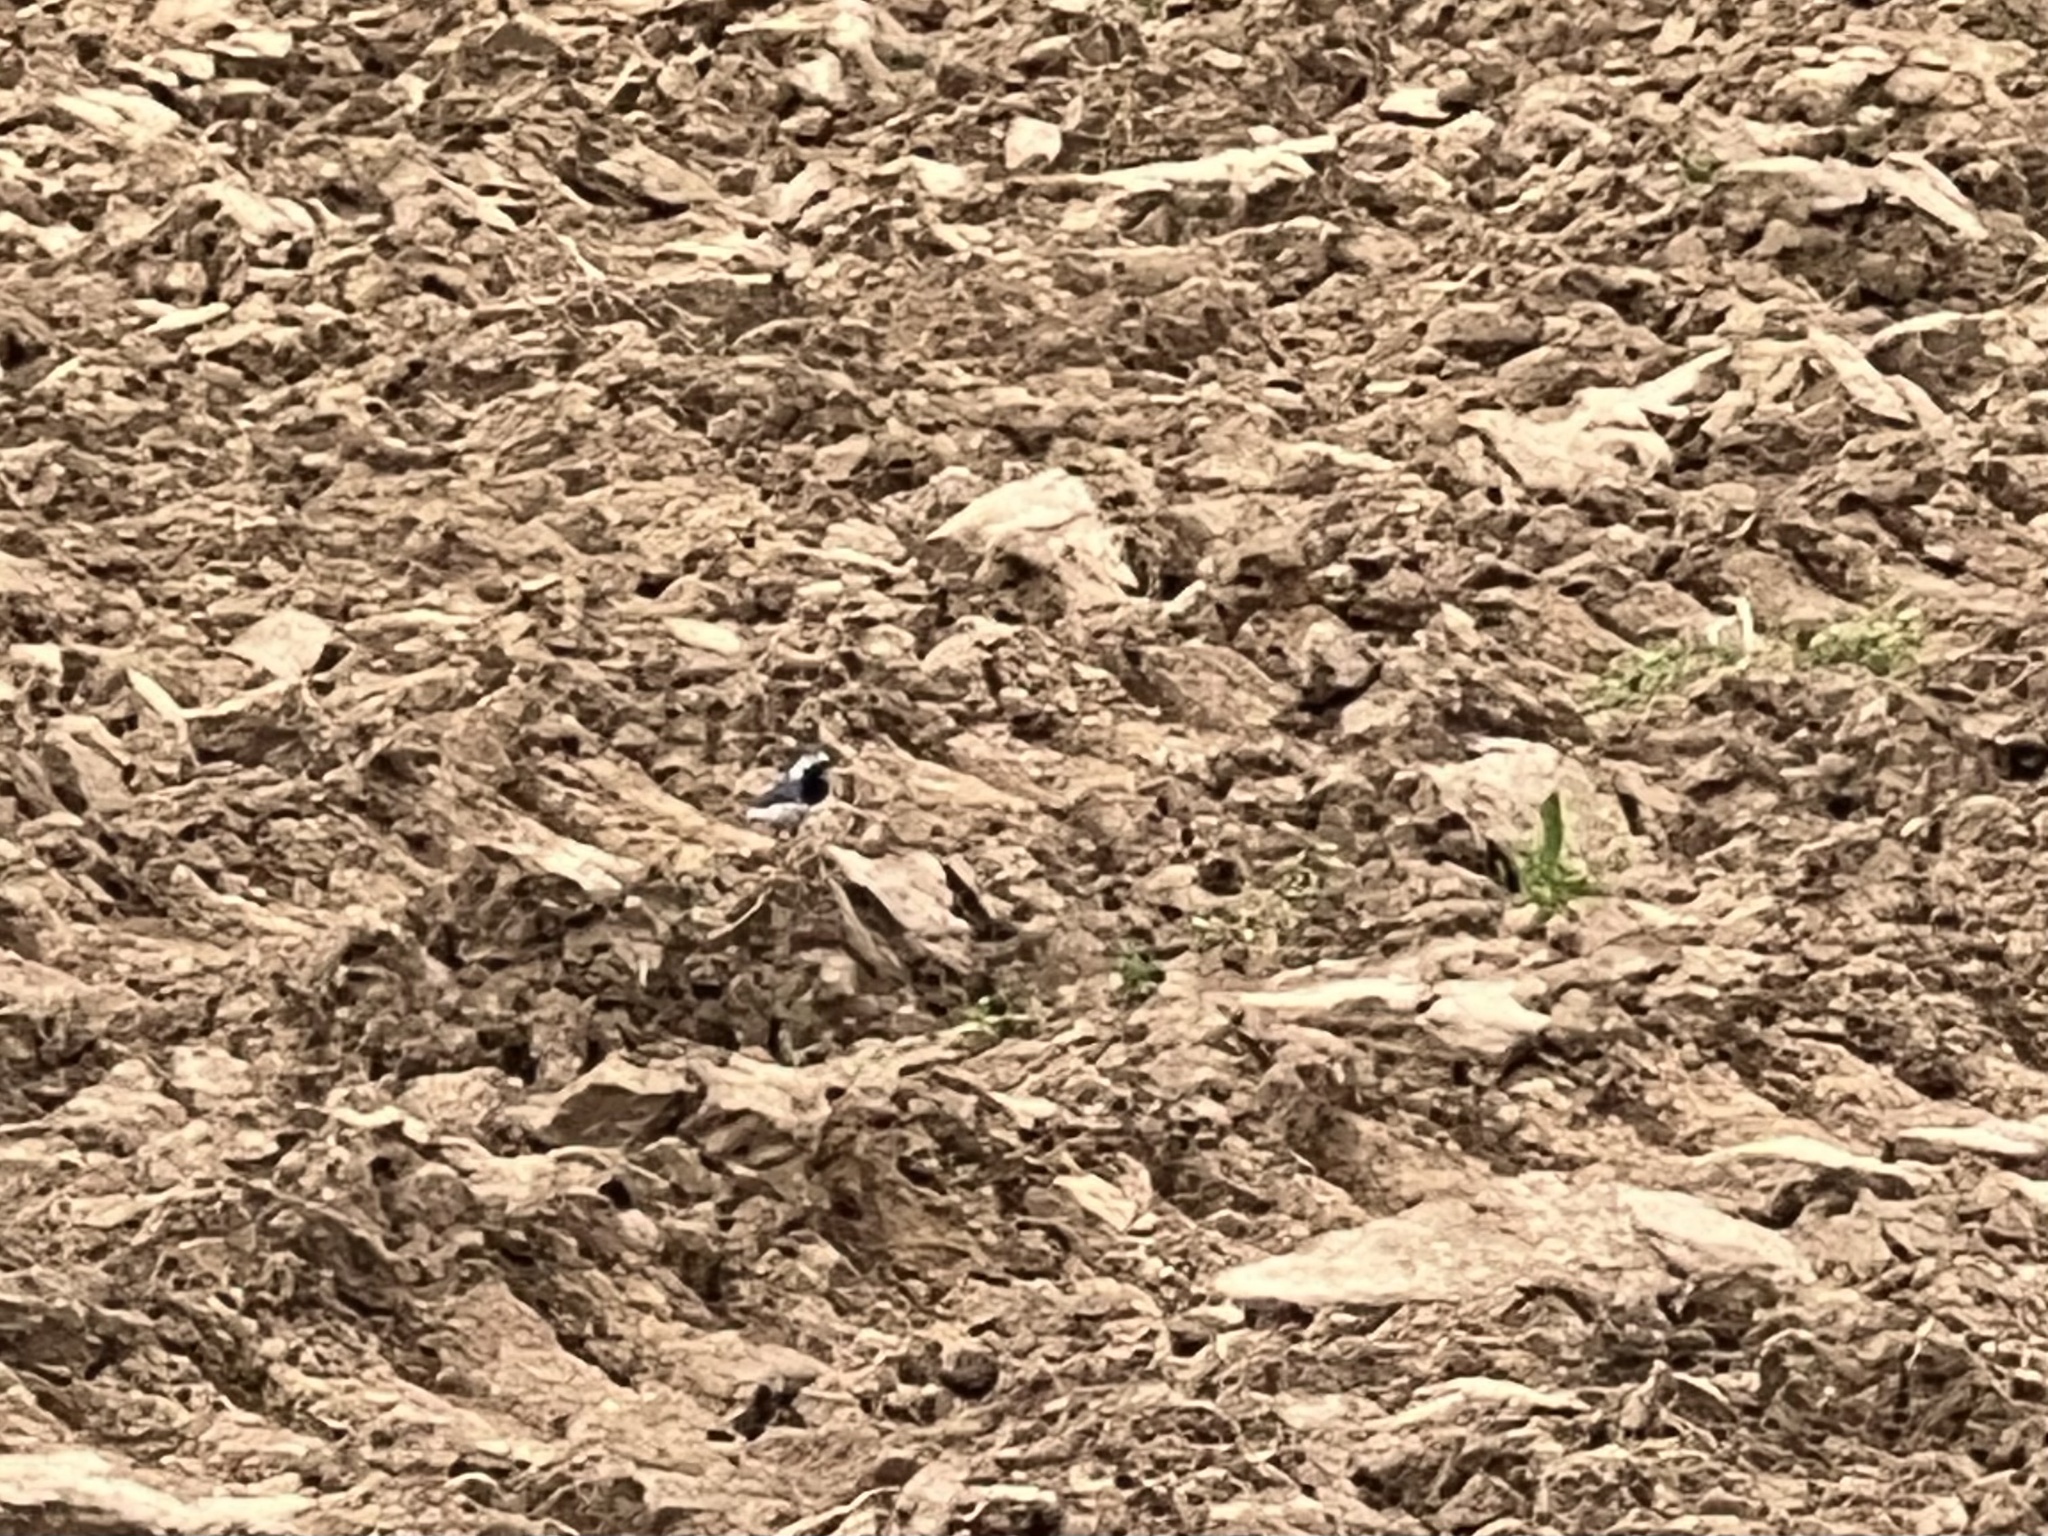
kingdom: Animalia
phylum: Chordata
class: Aves
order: Passeriformes
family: Motacillidae
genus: Motacilla
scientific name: Motacilla alba
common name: White wagtail
